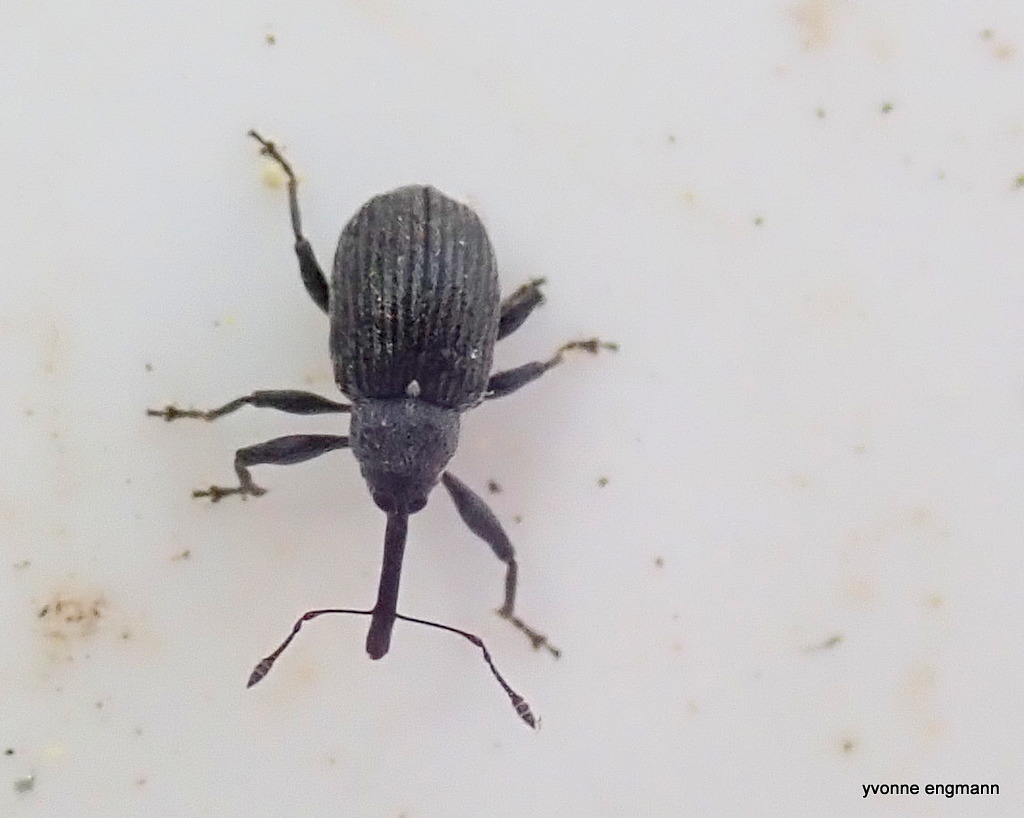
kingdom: Animalia
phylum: Arthropoda
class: Insecta
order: Coleoptera
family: Curculionidae
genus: Anthonomus
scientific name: Anthonomus rubi
